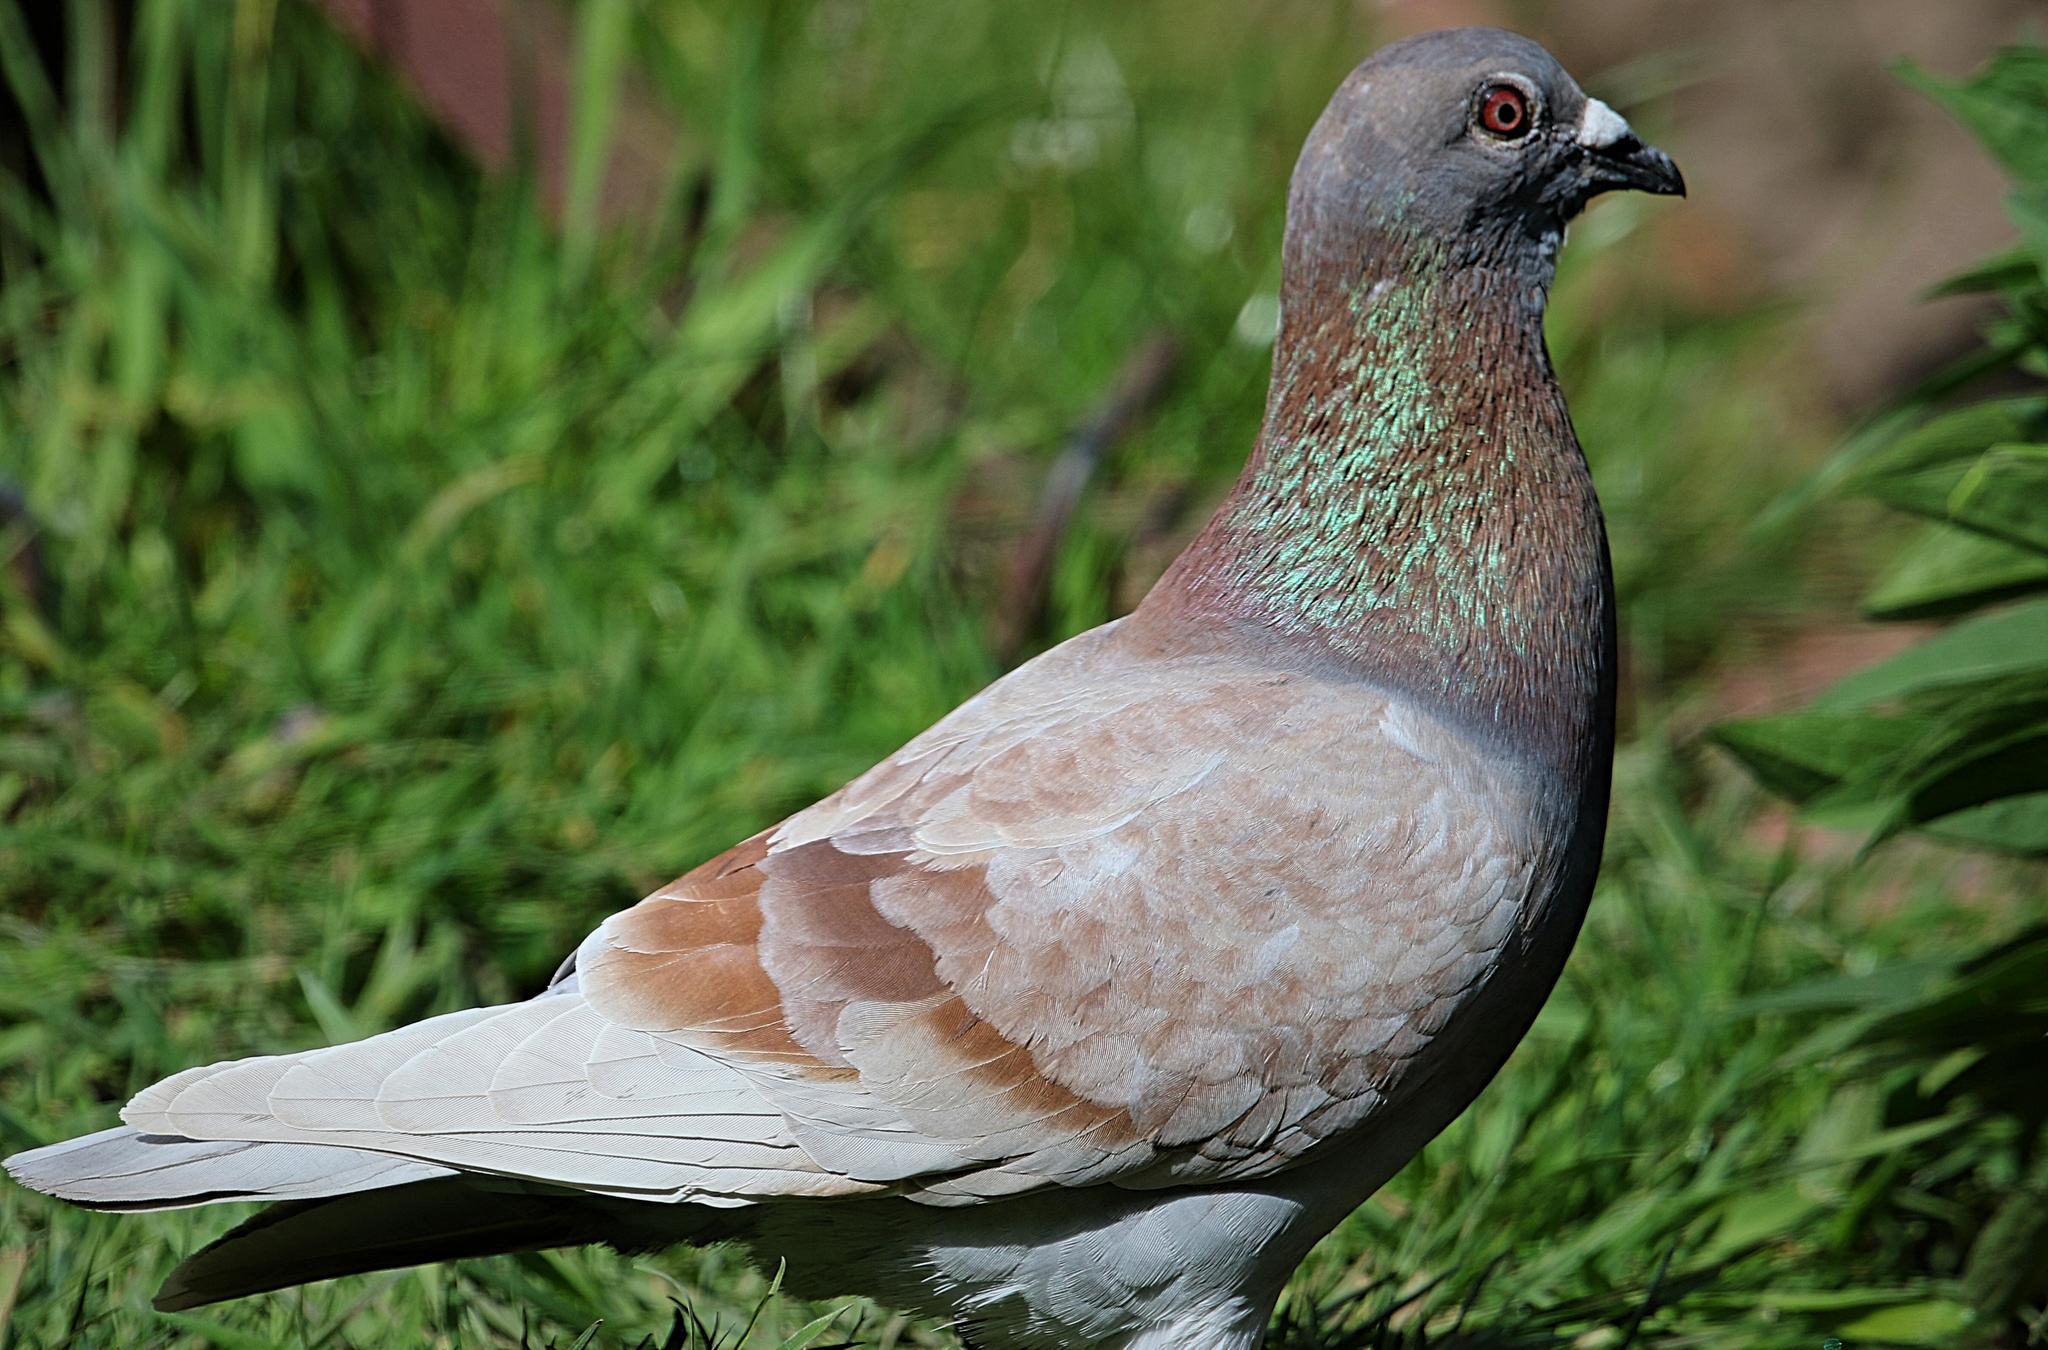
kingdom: Animalia
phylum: Chordata
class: Aves
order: Columbiformes
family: Columbidae
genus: Columba
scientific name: Columba livia
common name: Rock pigeon
